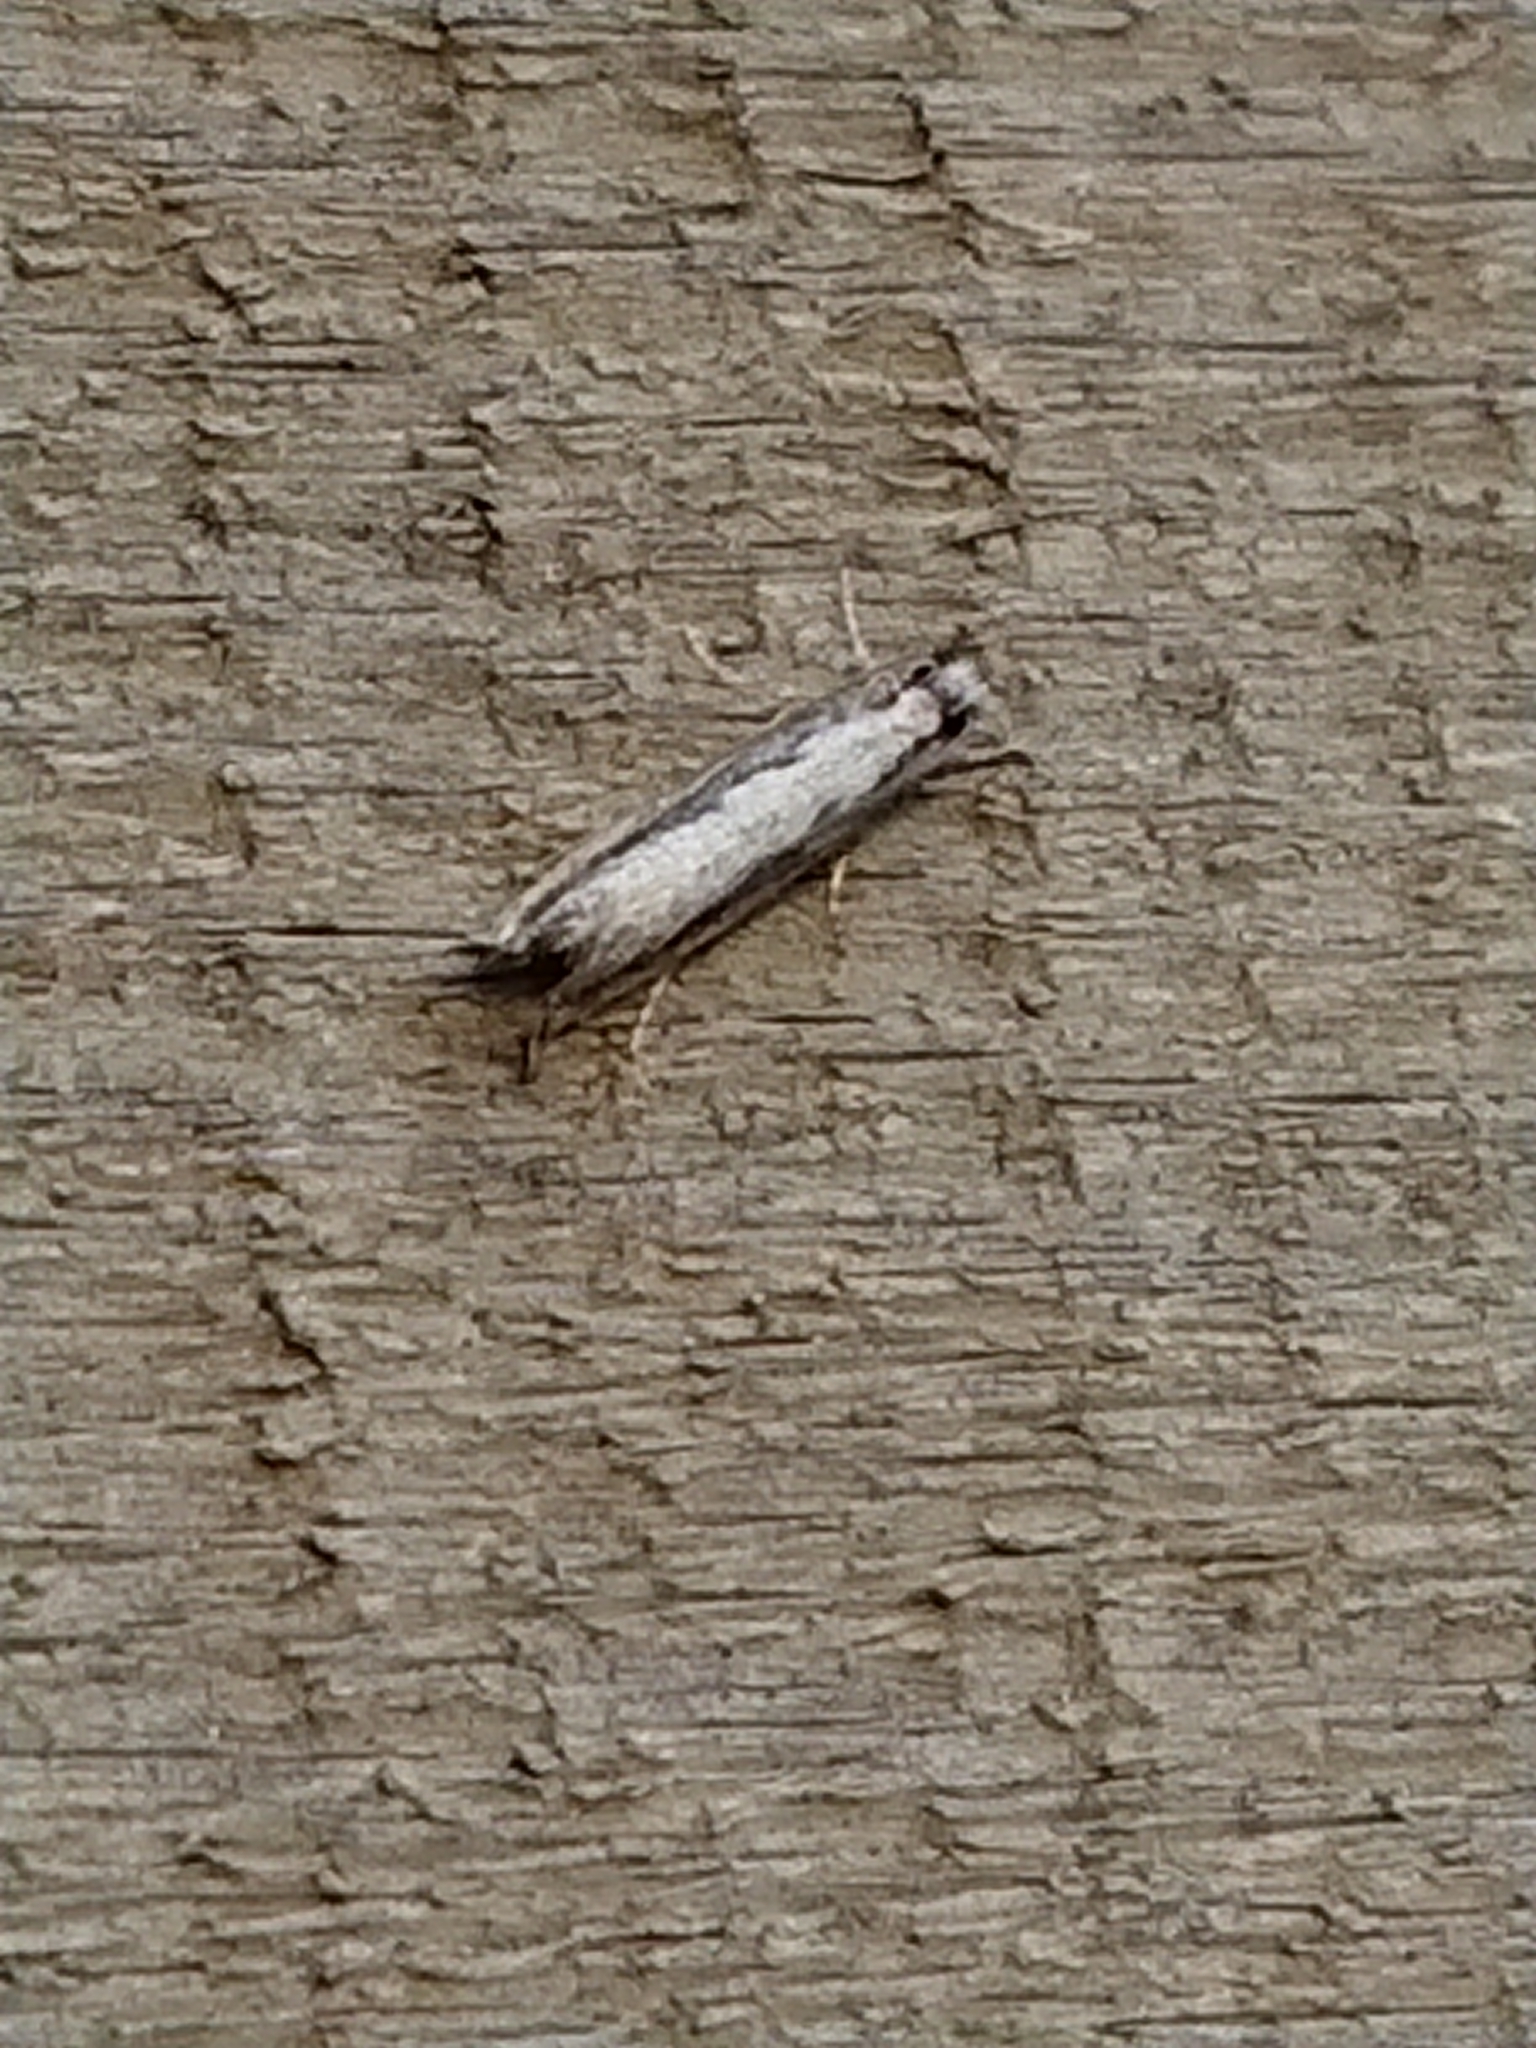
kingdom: Animalia
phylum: Arthropoda
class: Insecta
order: Lepidoptera
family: Tineidae
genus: Erechthias
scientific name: Erechthias fulguritella
